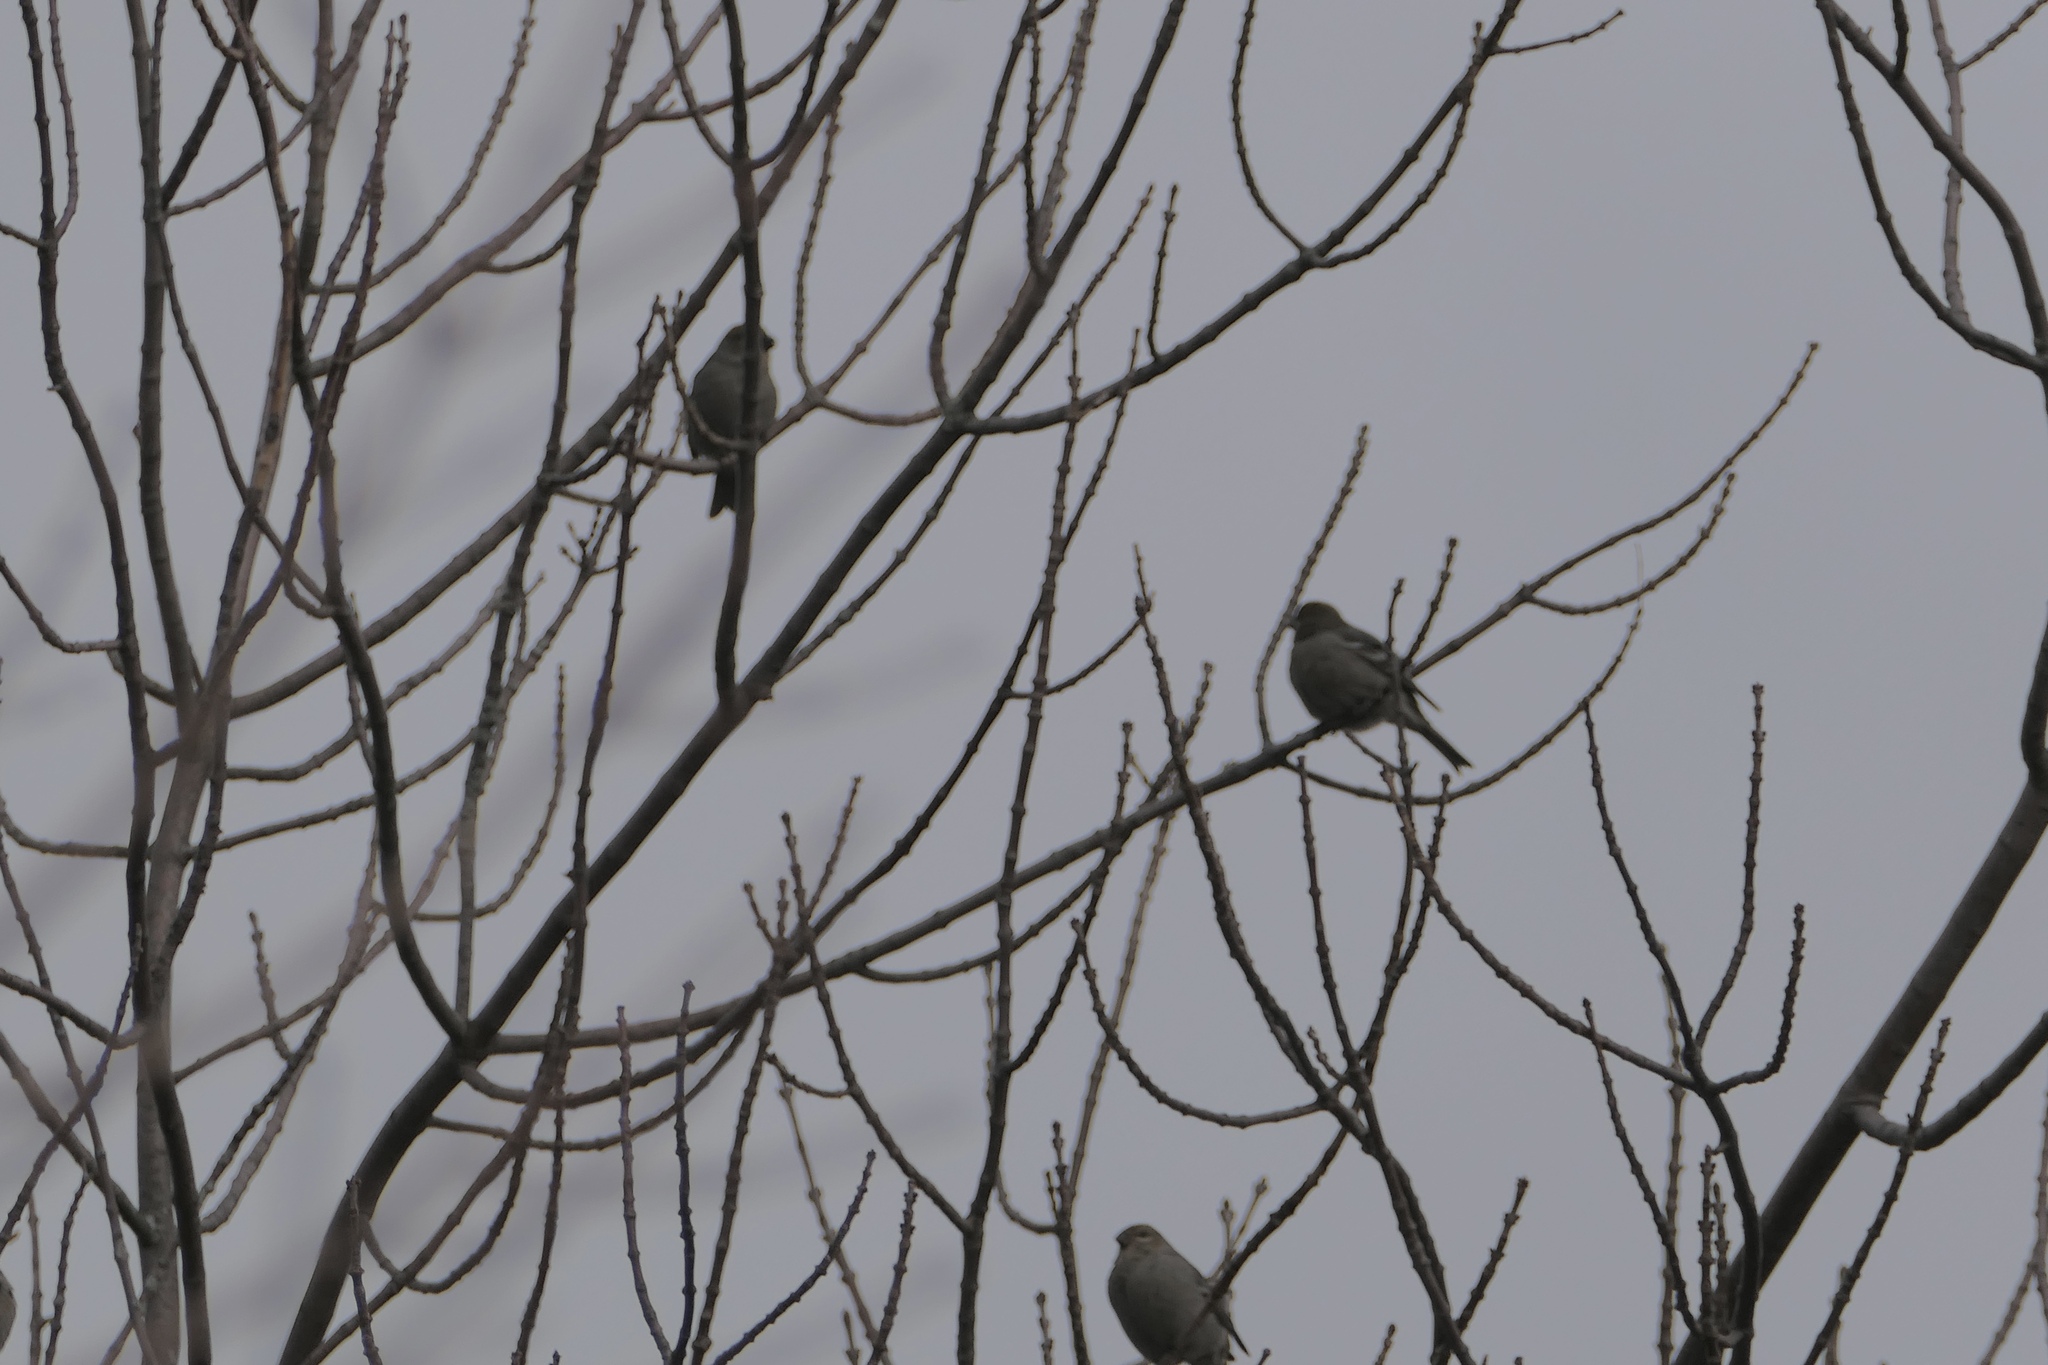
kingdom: Animalia
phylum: Chordata
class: Aves
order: Passeriformes
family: Fringillidae
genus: Pinicola
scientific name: Pinicola enucleator
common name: Pine grosbeak
